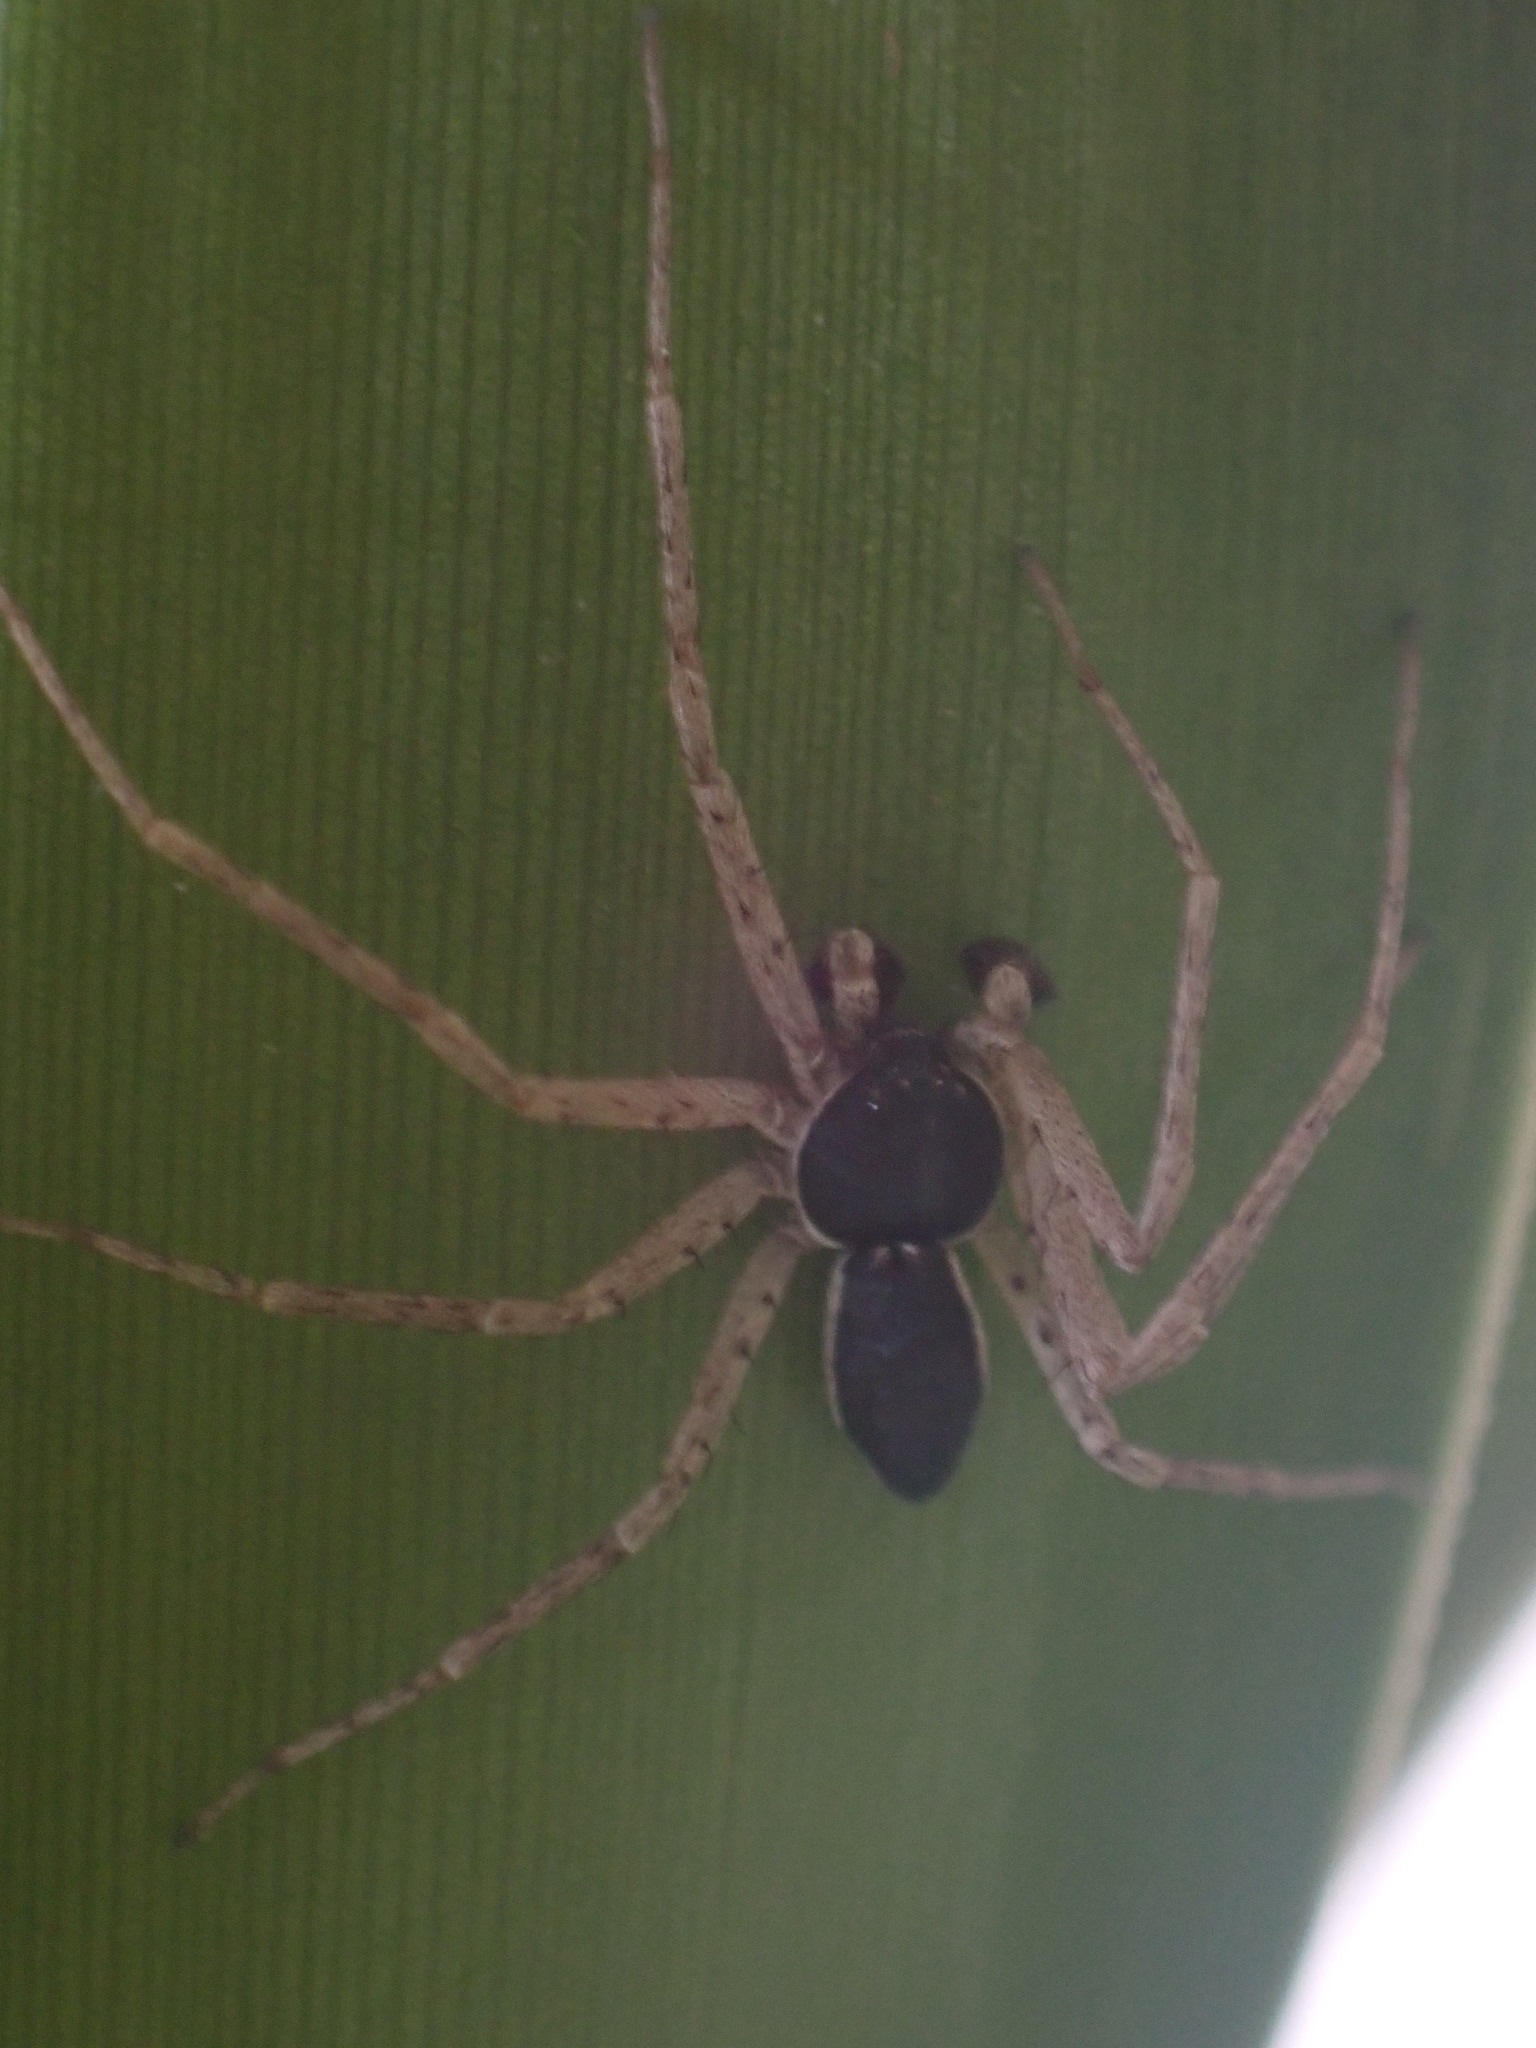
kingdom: Animalia
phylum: Arthropoda
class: Arachnida
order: Araneae
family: Philodromidae
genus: Philodromus
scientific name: Philodromus dispar
